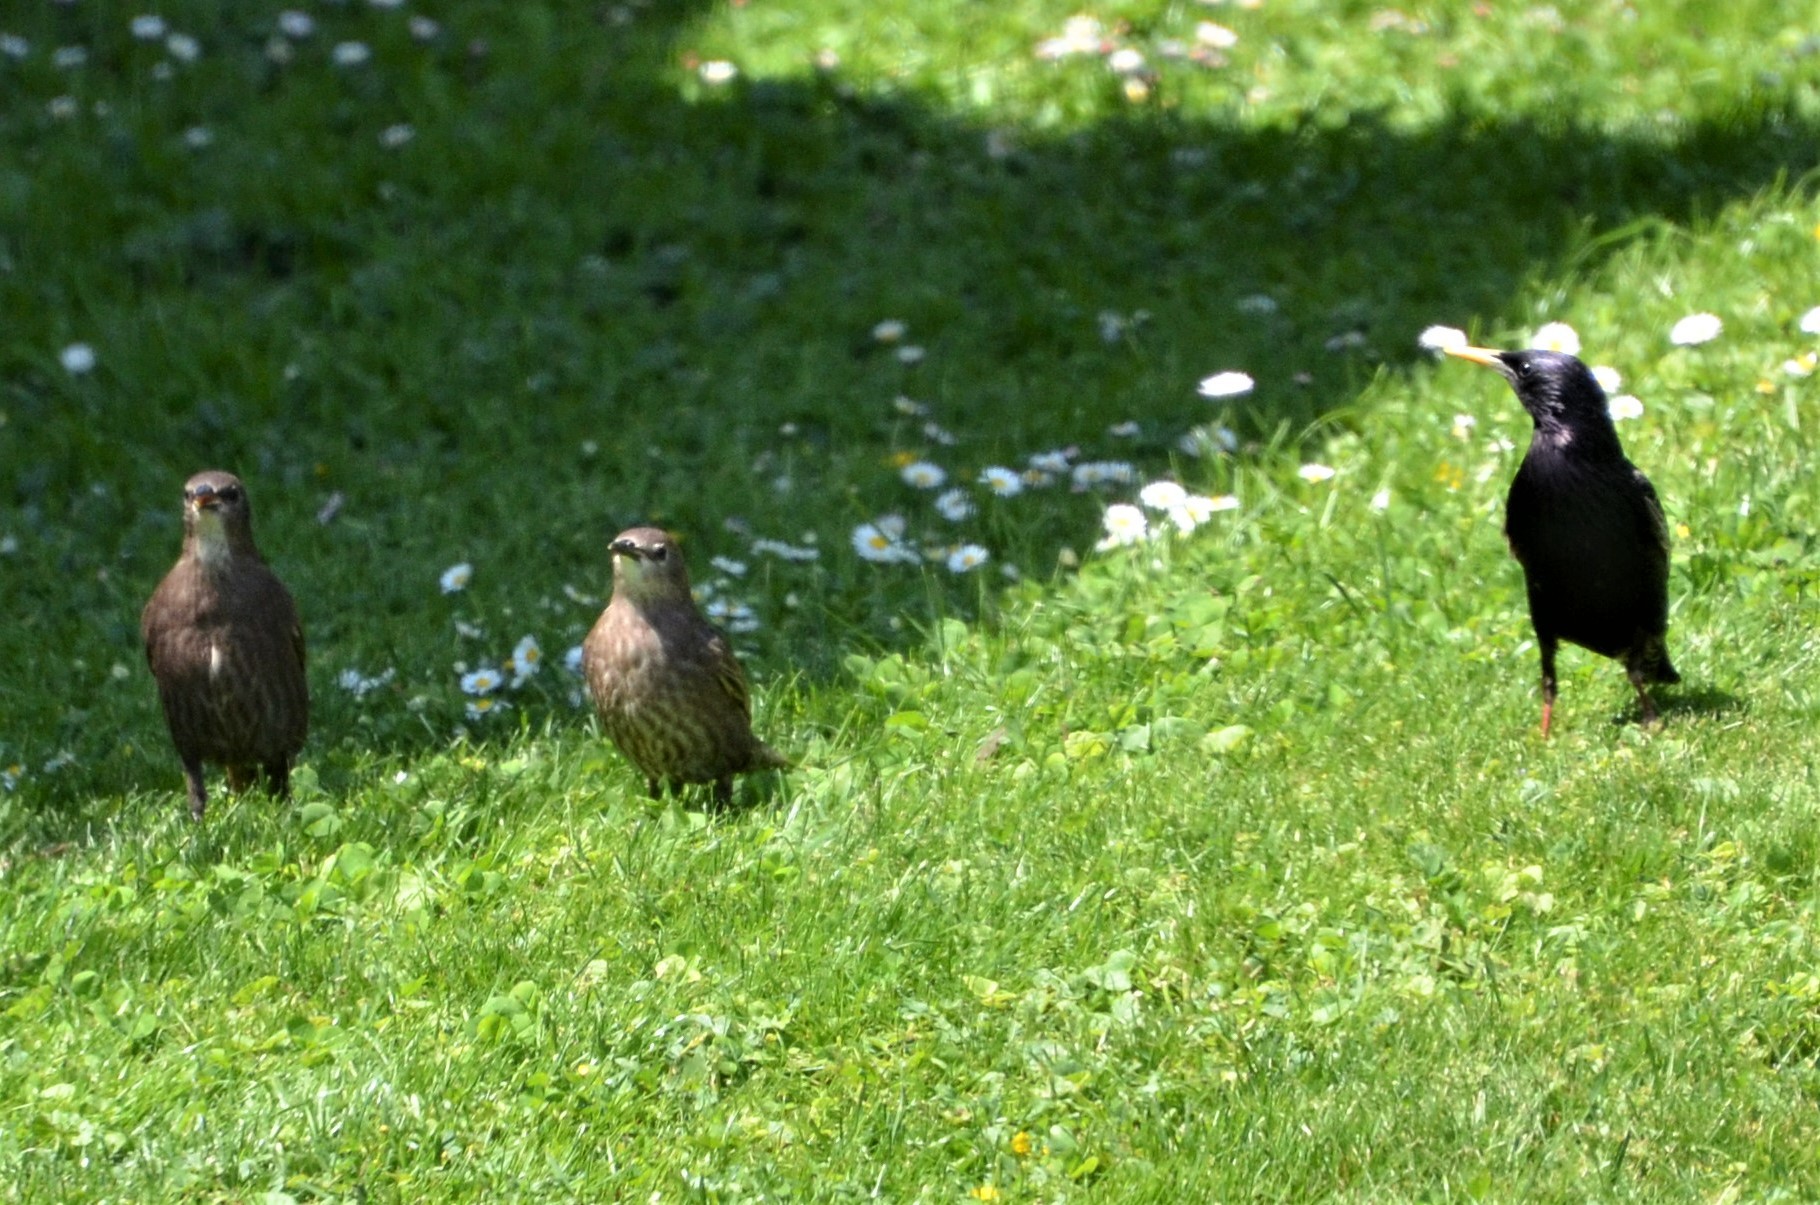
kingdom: Animalia
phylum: Chordata
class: Aves
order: Passeriformes
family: Sturnidae
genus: Sturnus
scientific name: Sturnus vulgaris
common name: Common starling
